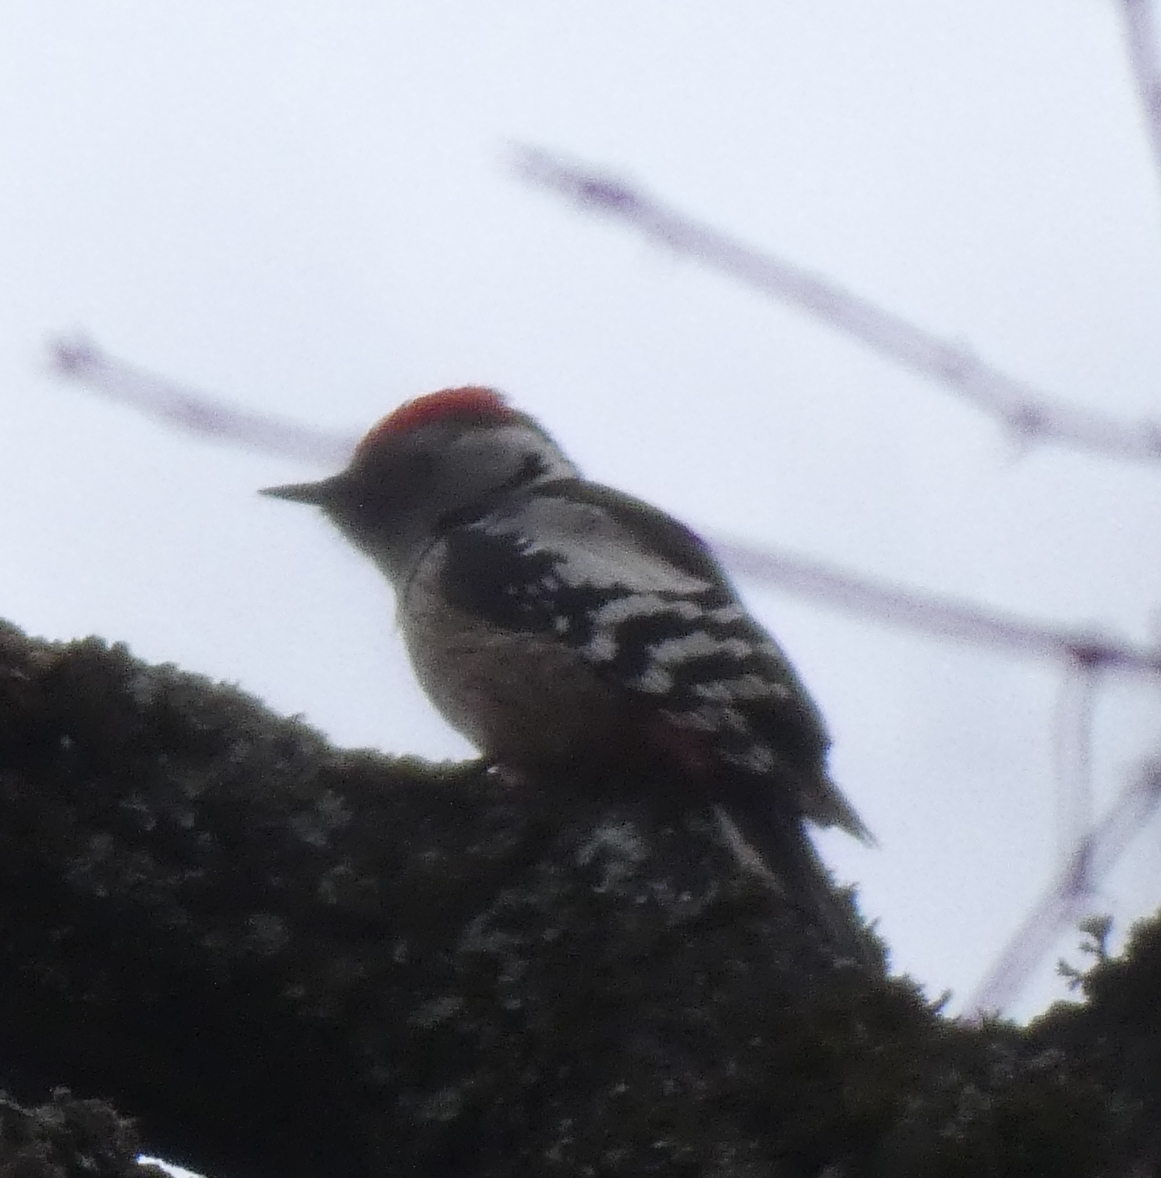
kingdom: Animalia
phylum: Chordata
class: Aves
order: Piciformes
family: Picidae
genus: Dendrocoptes
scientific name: Dendrocoptes medius
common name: Middle spotted woodpecker
